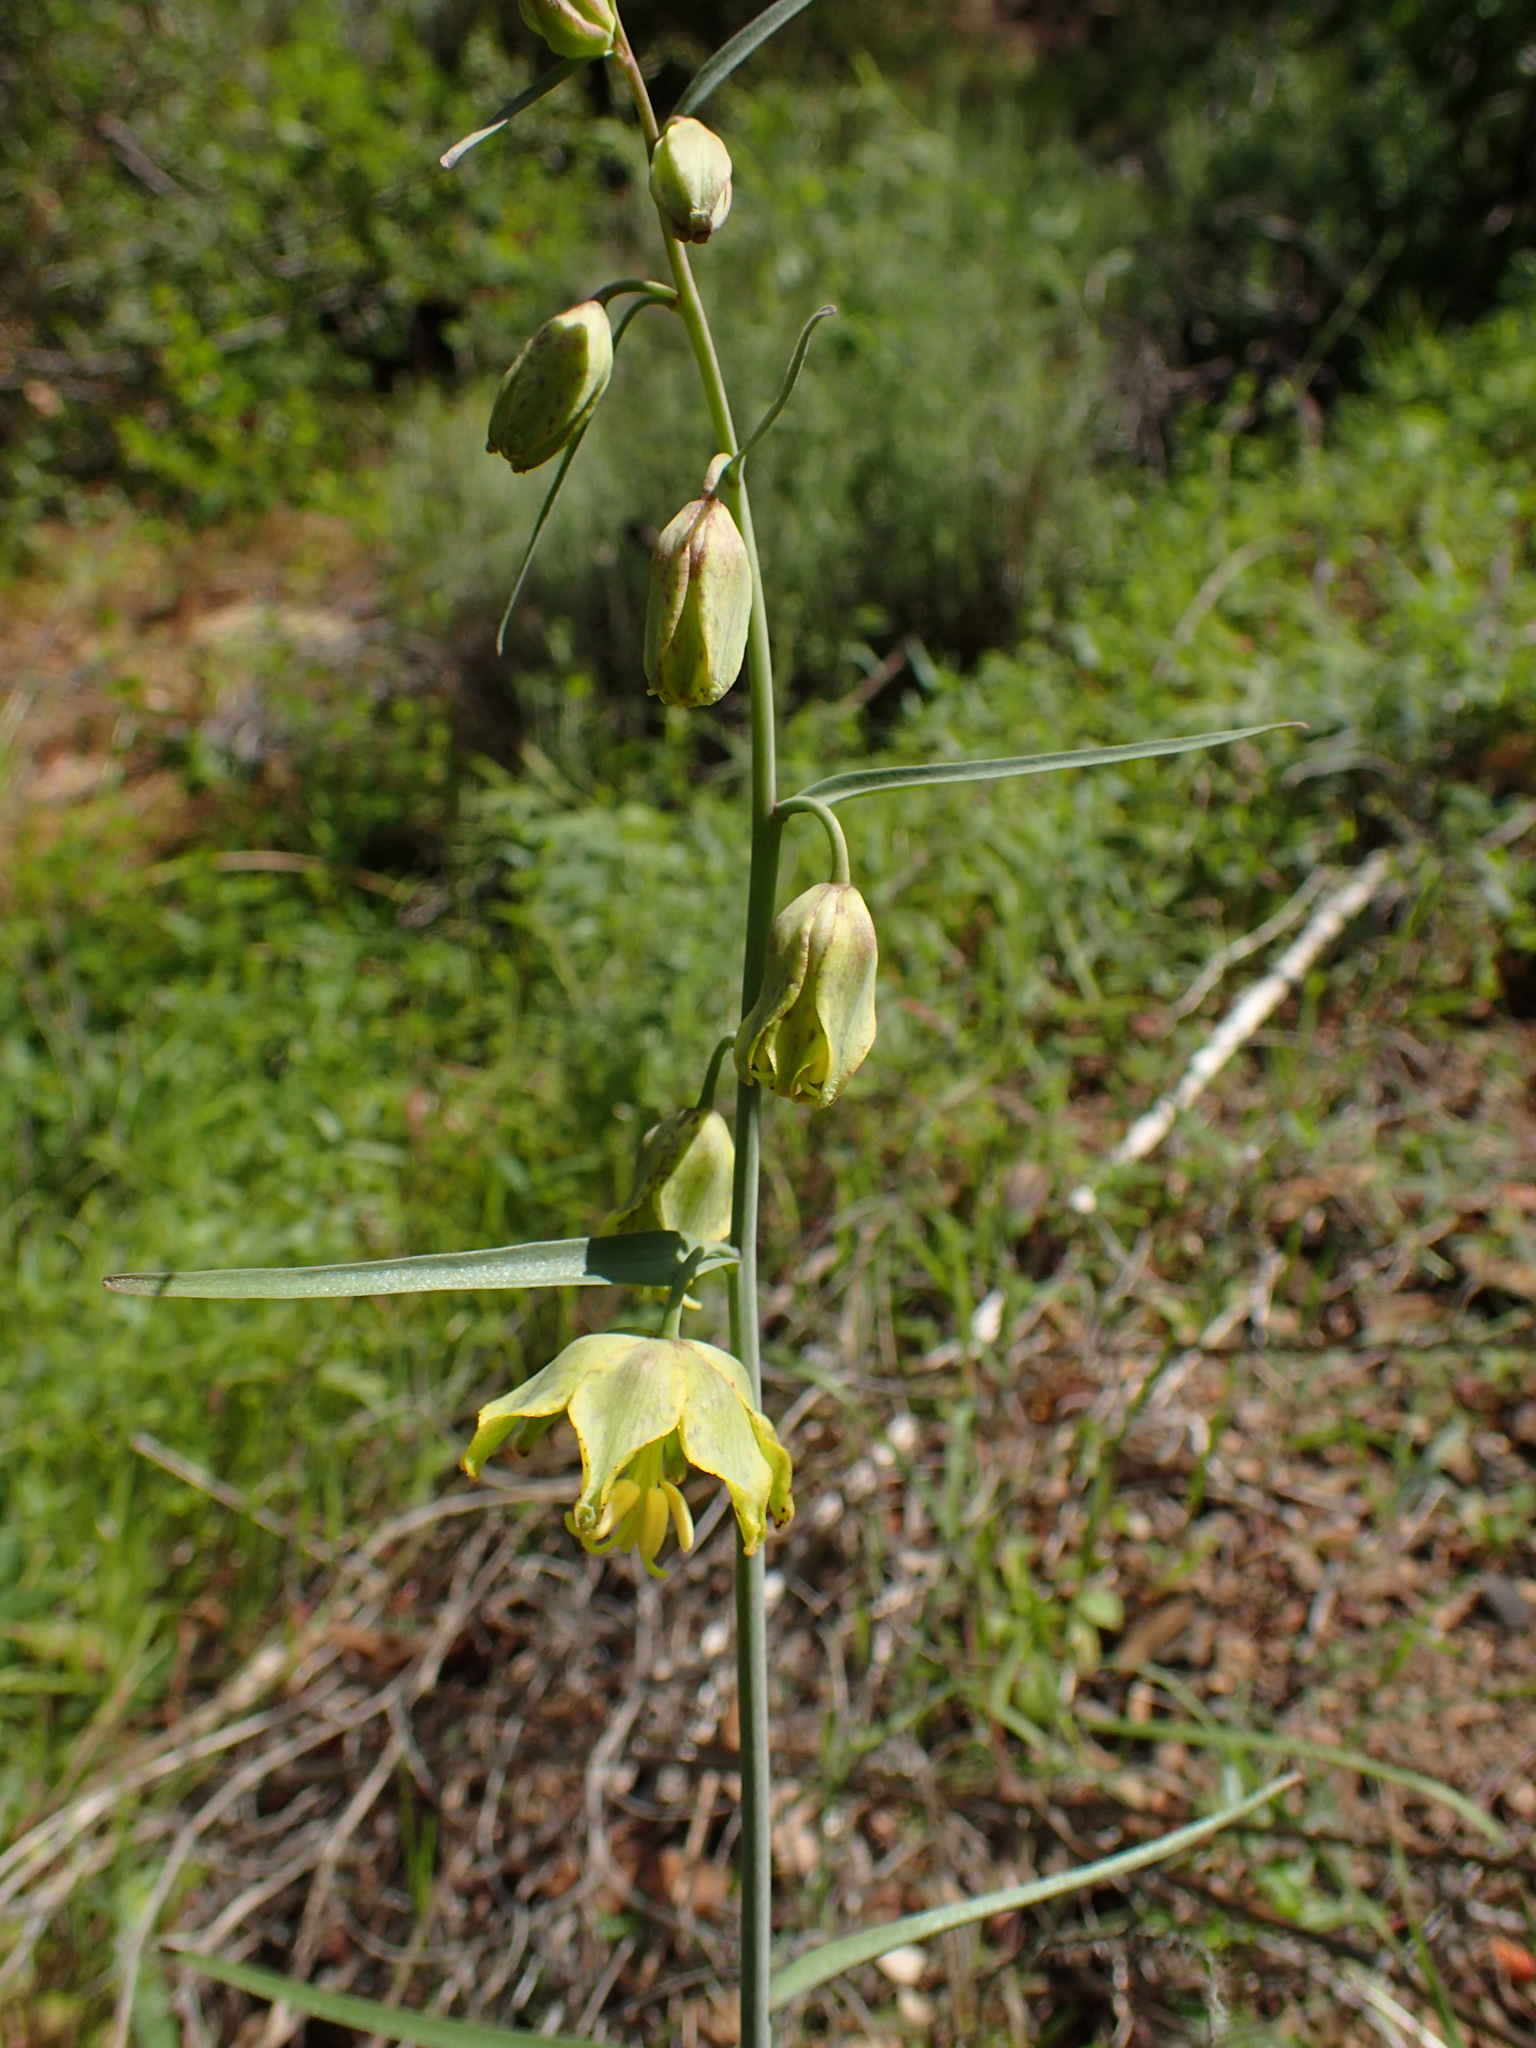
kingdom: Plantae
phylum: Tracheophyta
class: Liliopsida
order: Liliales
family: Liliaceae
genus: Fritillaria
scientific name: Fritillaria ojaiensis
